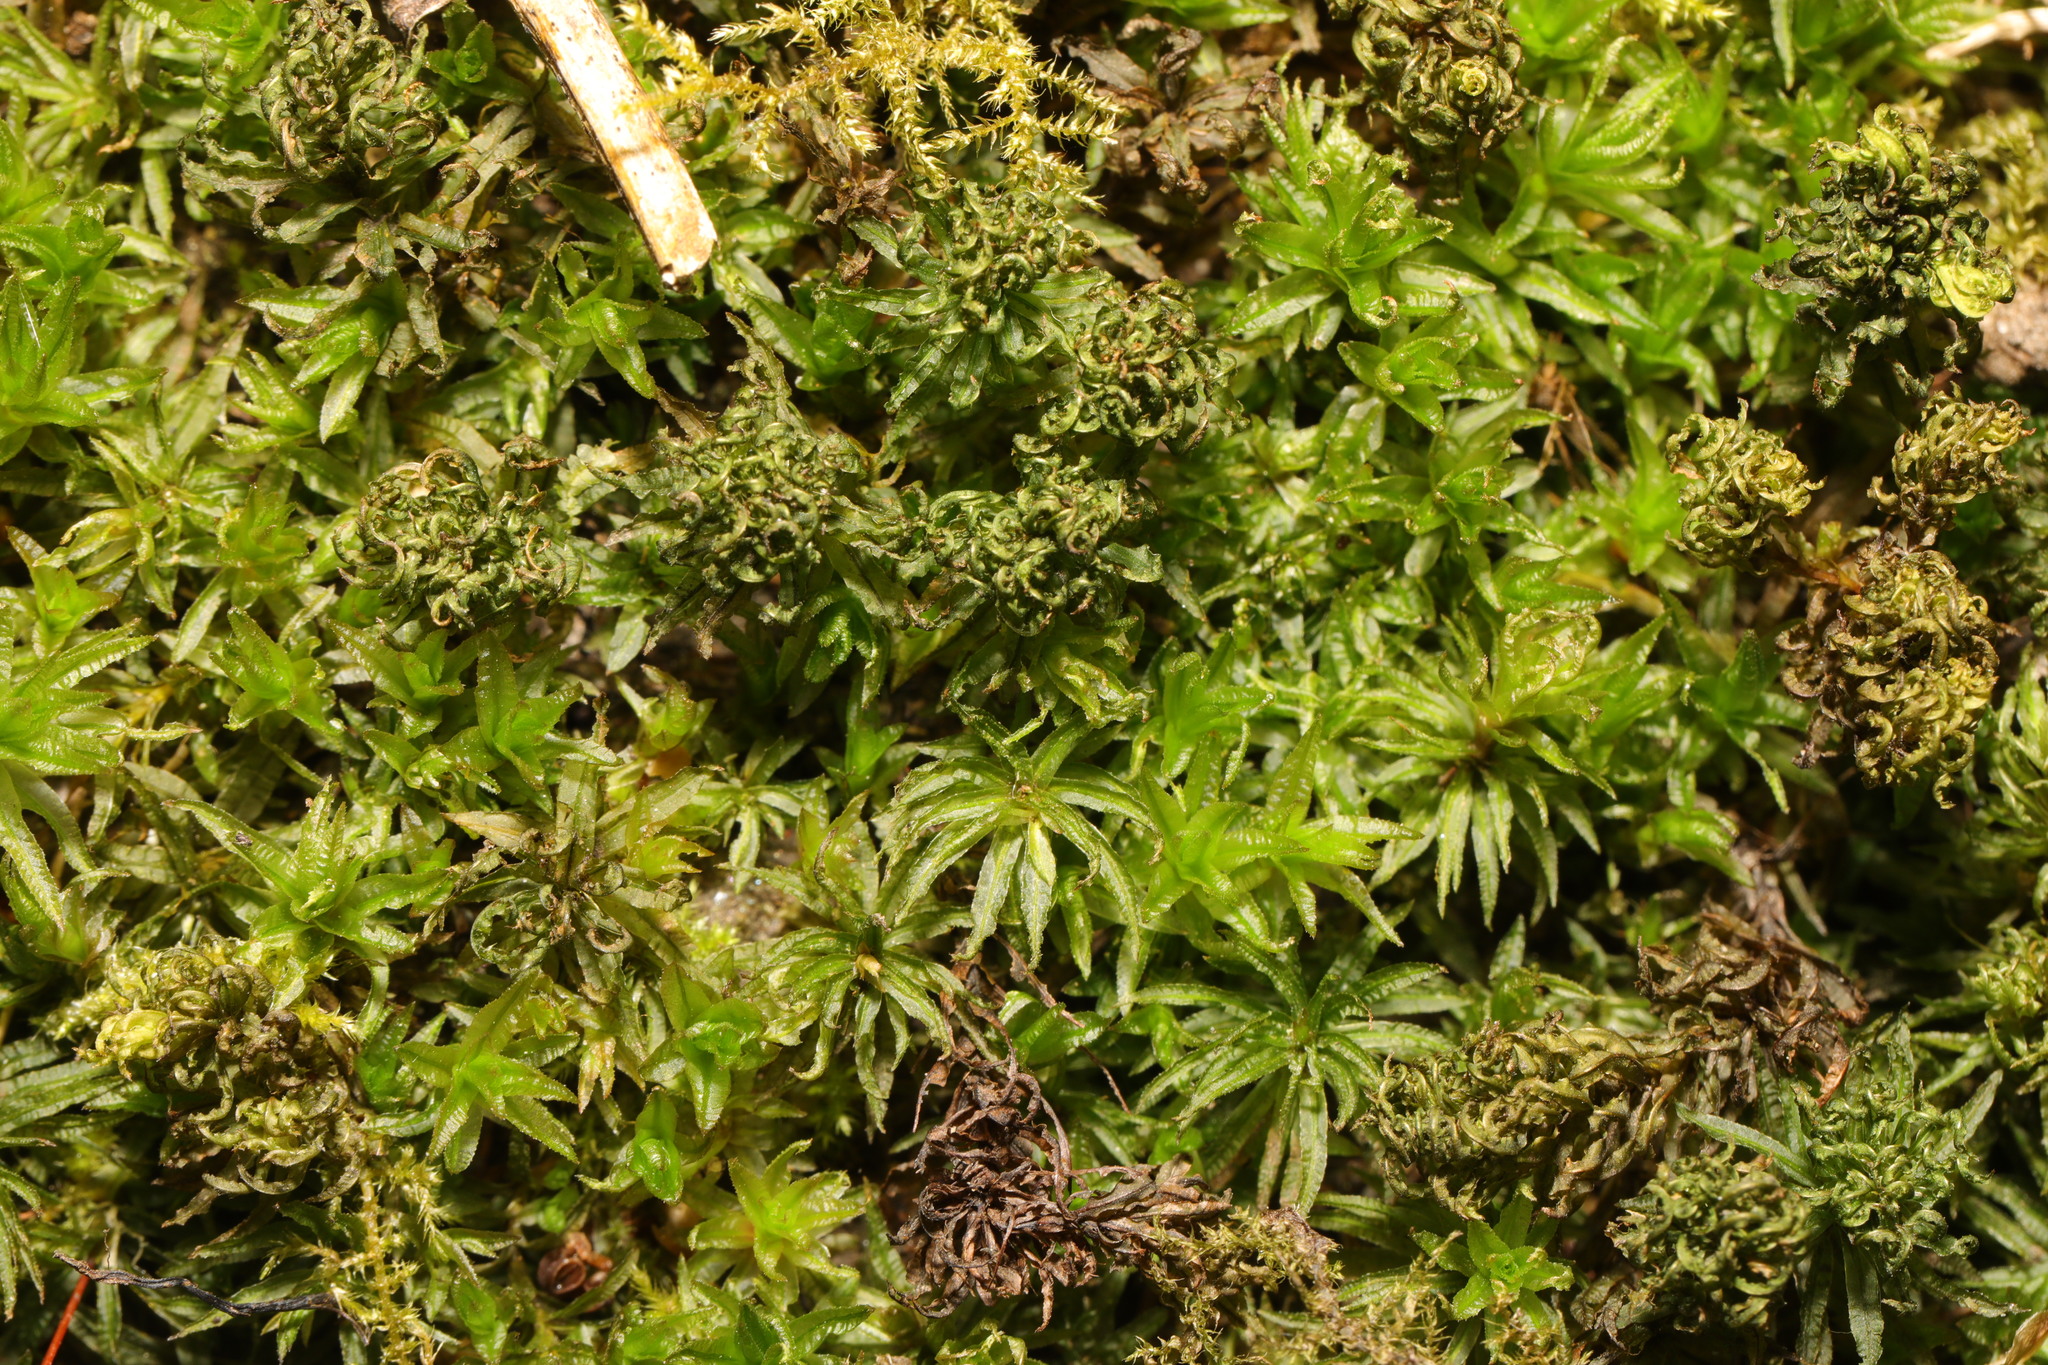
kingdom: Plantae
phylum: Bryophyta
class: Polytrichopsida
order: Polytrichales
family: Polytrichaceae
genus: Atrichum
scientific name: Atrichum undulatum
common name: Common smoothcap
